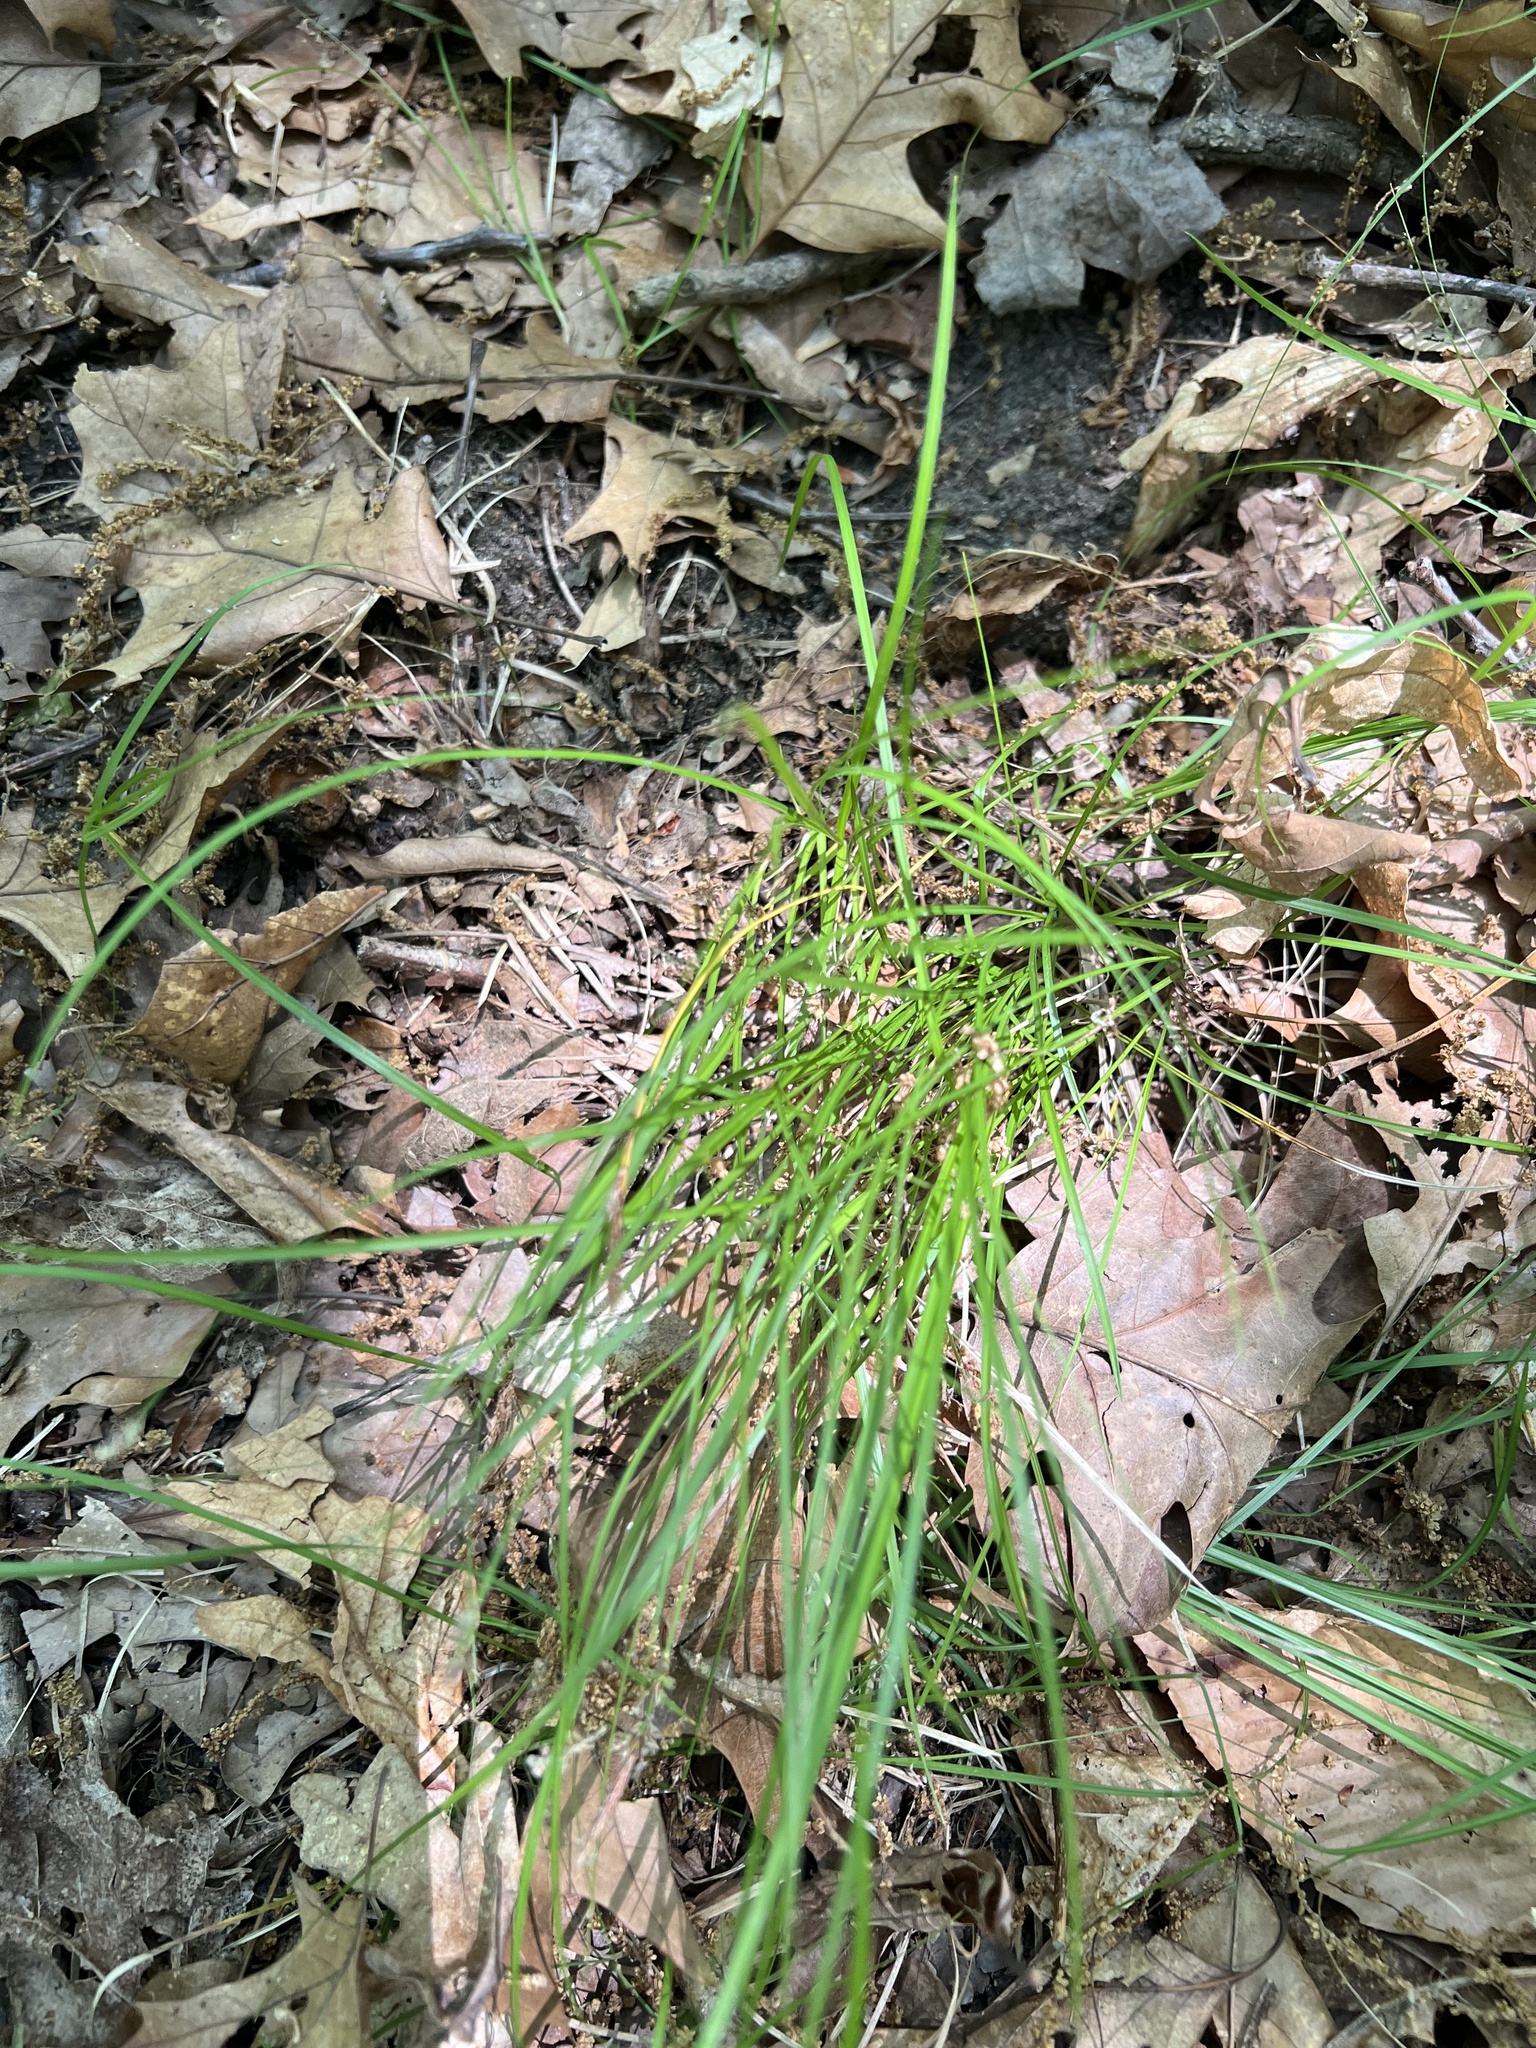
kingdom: Plantae
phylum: Tracheophyta
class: Liliopsida
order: Poales
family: Cyperaceae
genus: Carex
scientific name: Carex
